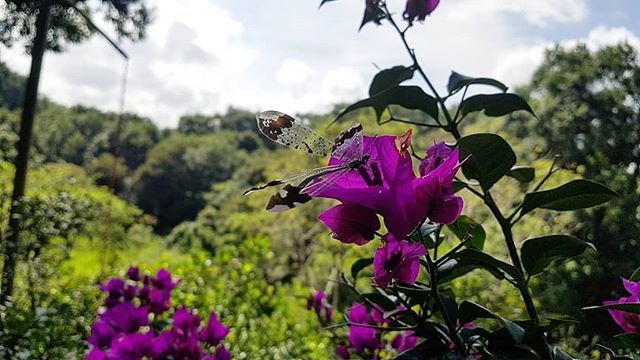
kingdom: Animalia
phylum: Arthropoda
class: Insecta
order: Neuroptera
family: Myrmeleontidae
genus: Glenurus
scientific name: Glenurus luniger
